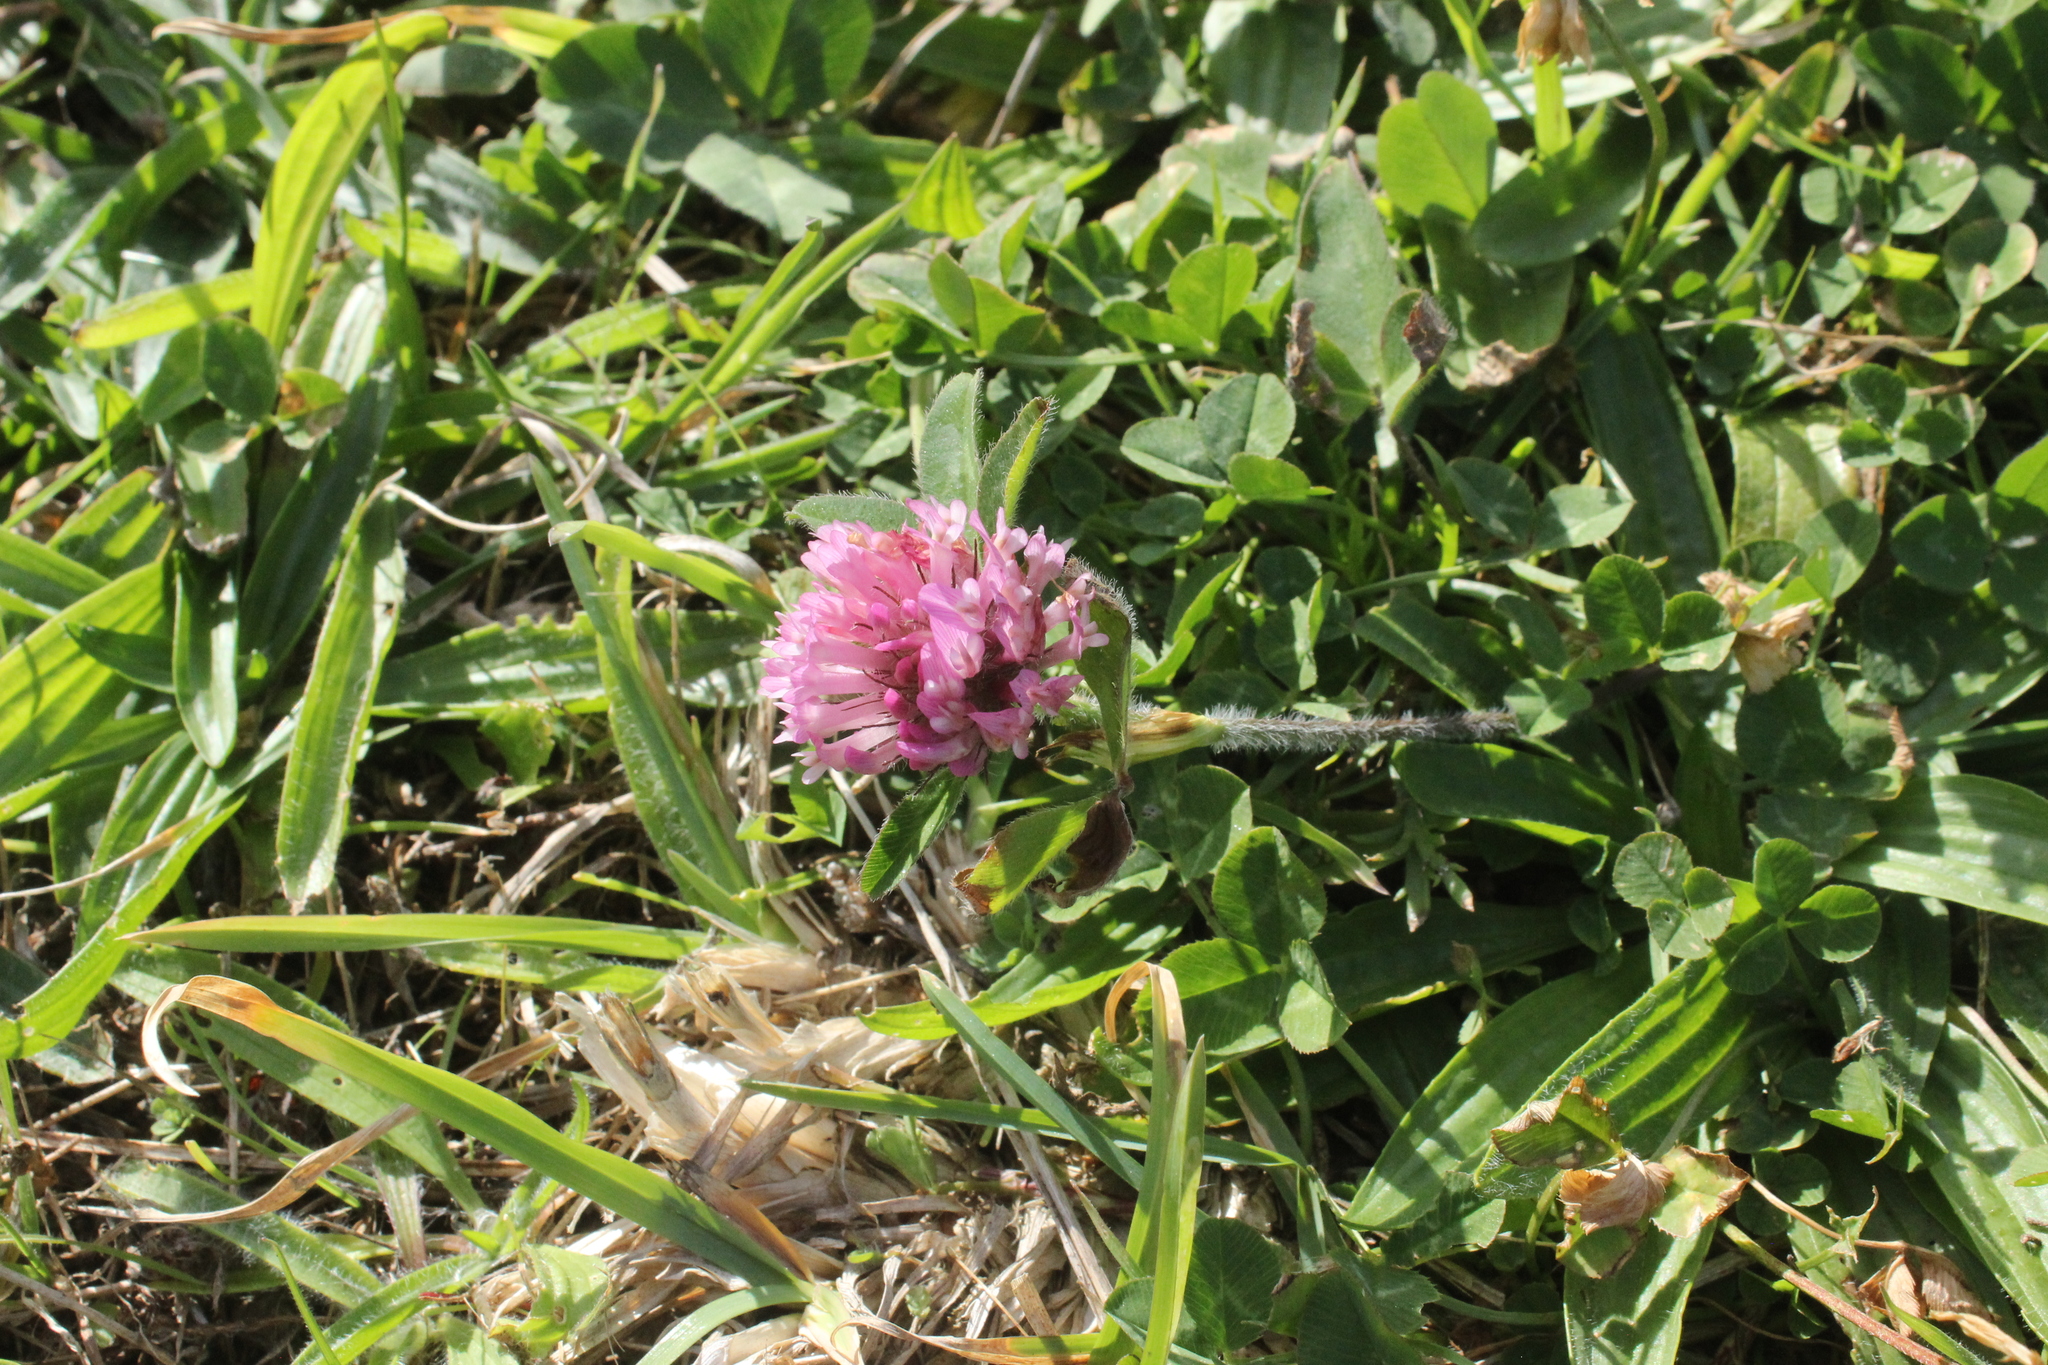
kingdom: Plantae
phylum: Tracheophyta
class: Magnoliopsida
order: Fabales
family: Fabaceae
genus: Trifolium
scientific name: Trifolium pratense
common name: Red clover
